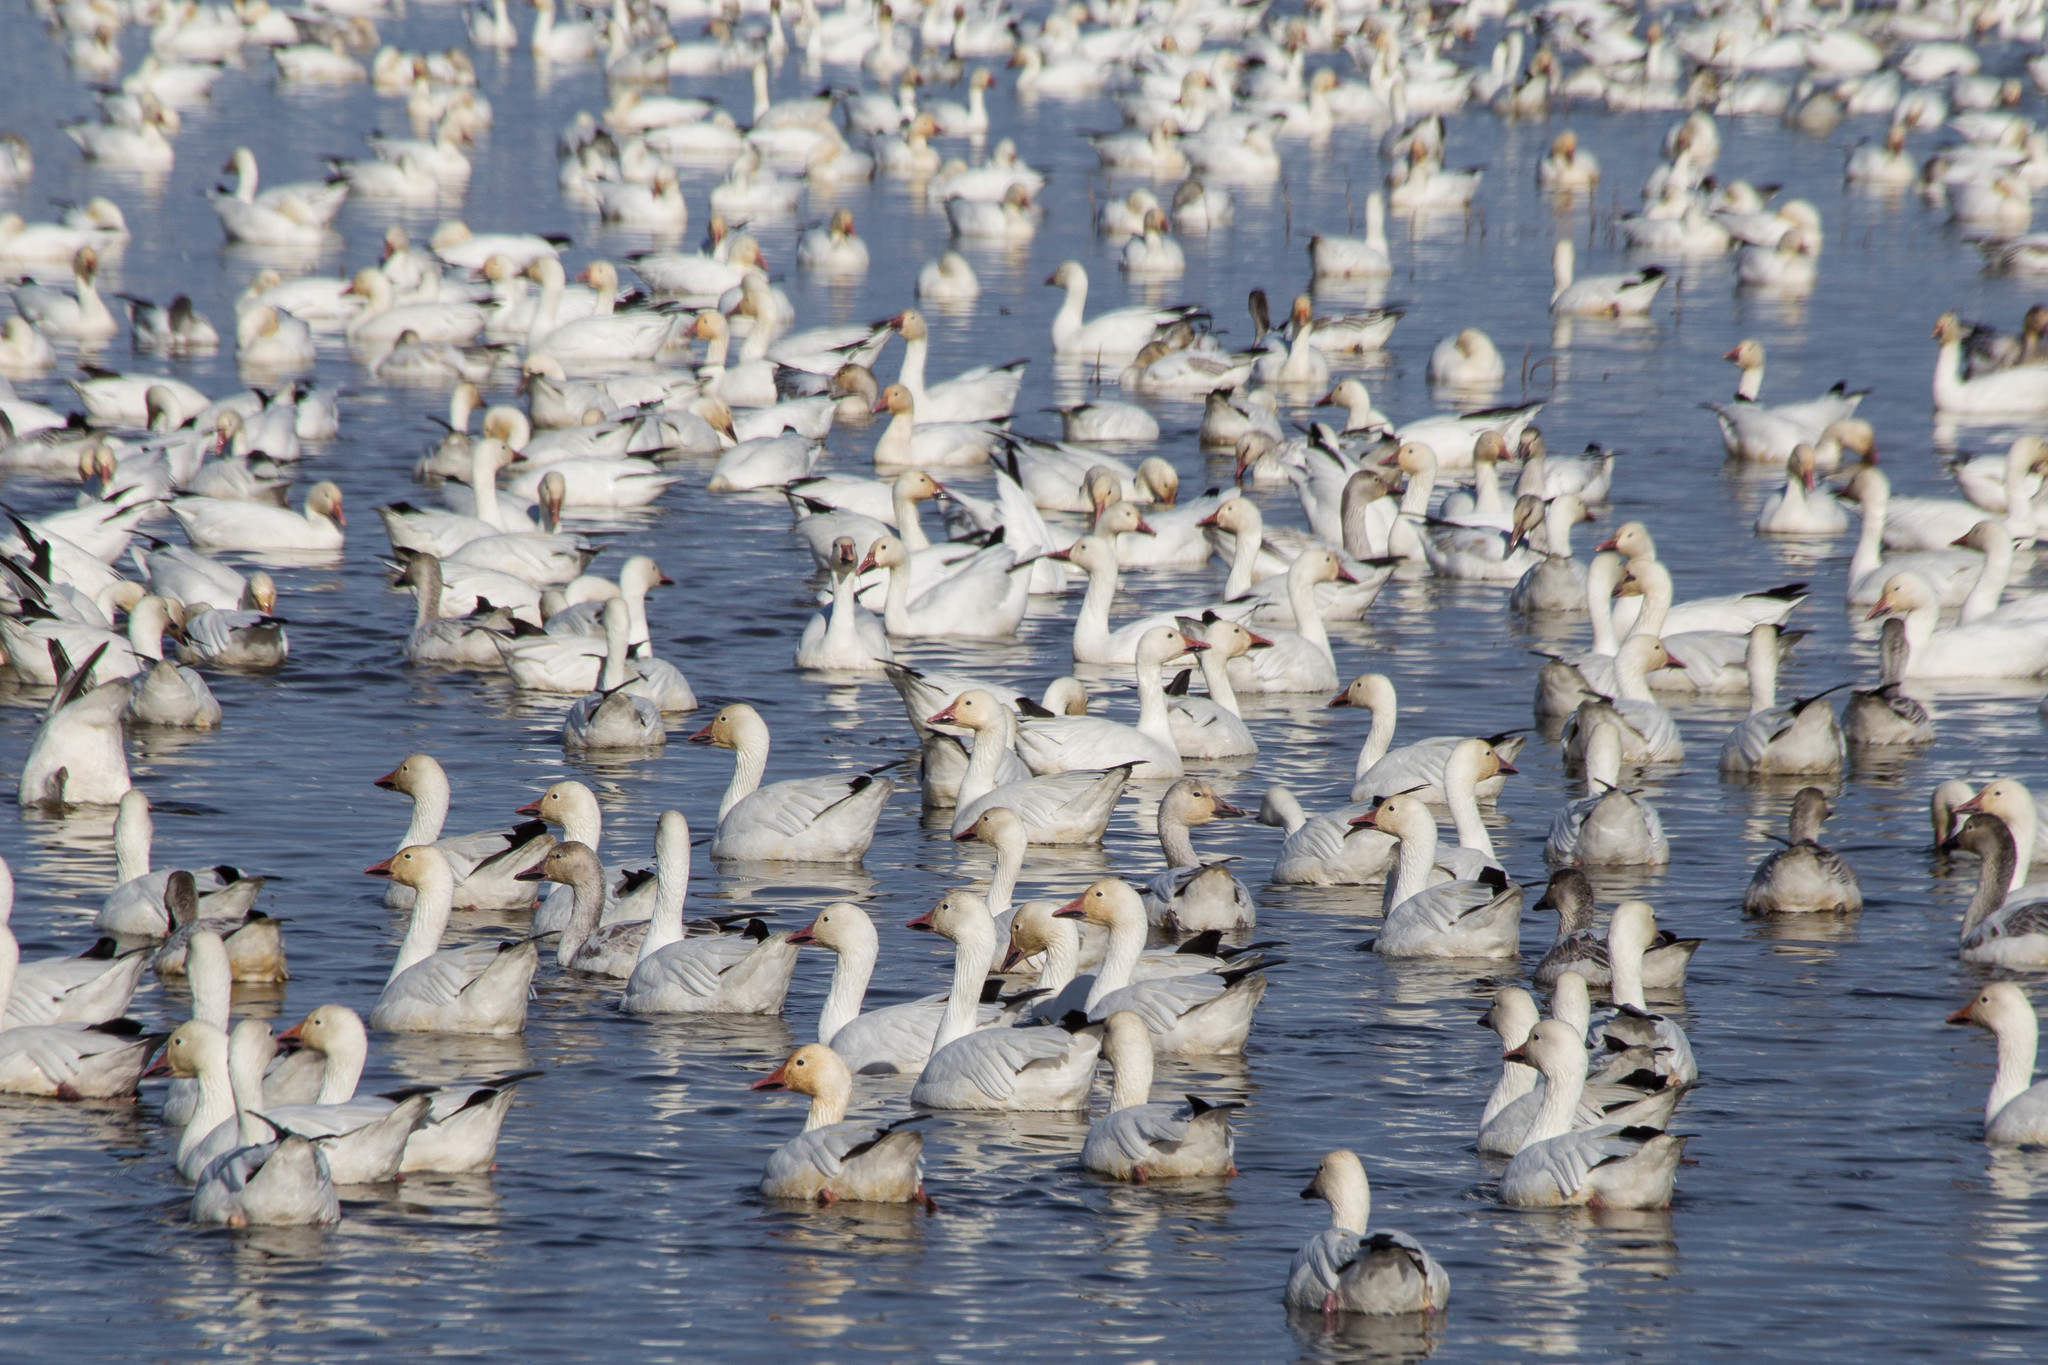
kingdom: Animalia
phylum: Chordata
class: Aves
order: Anseriformes
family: Anatidae
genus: Anser
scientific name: Anser caerulescens
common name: Snow goose
